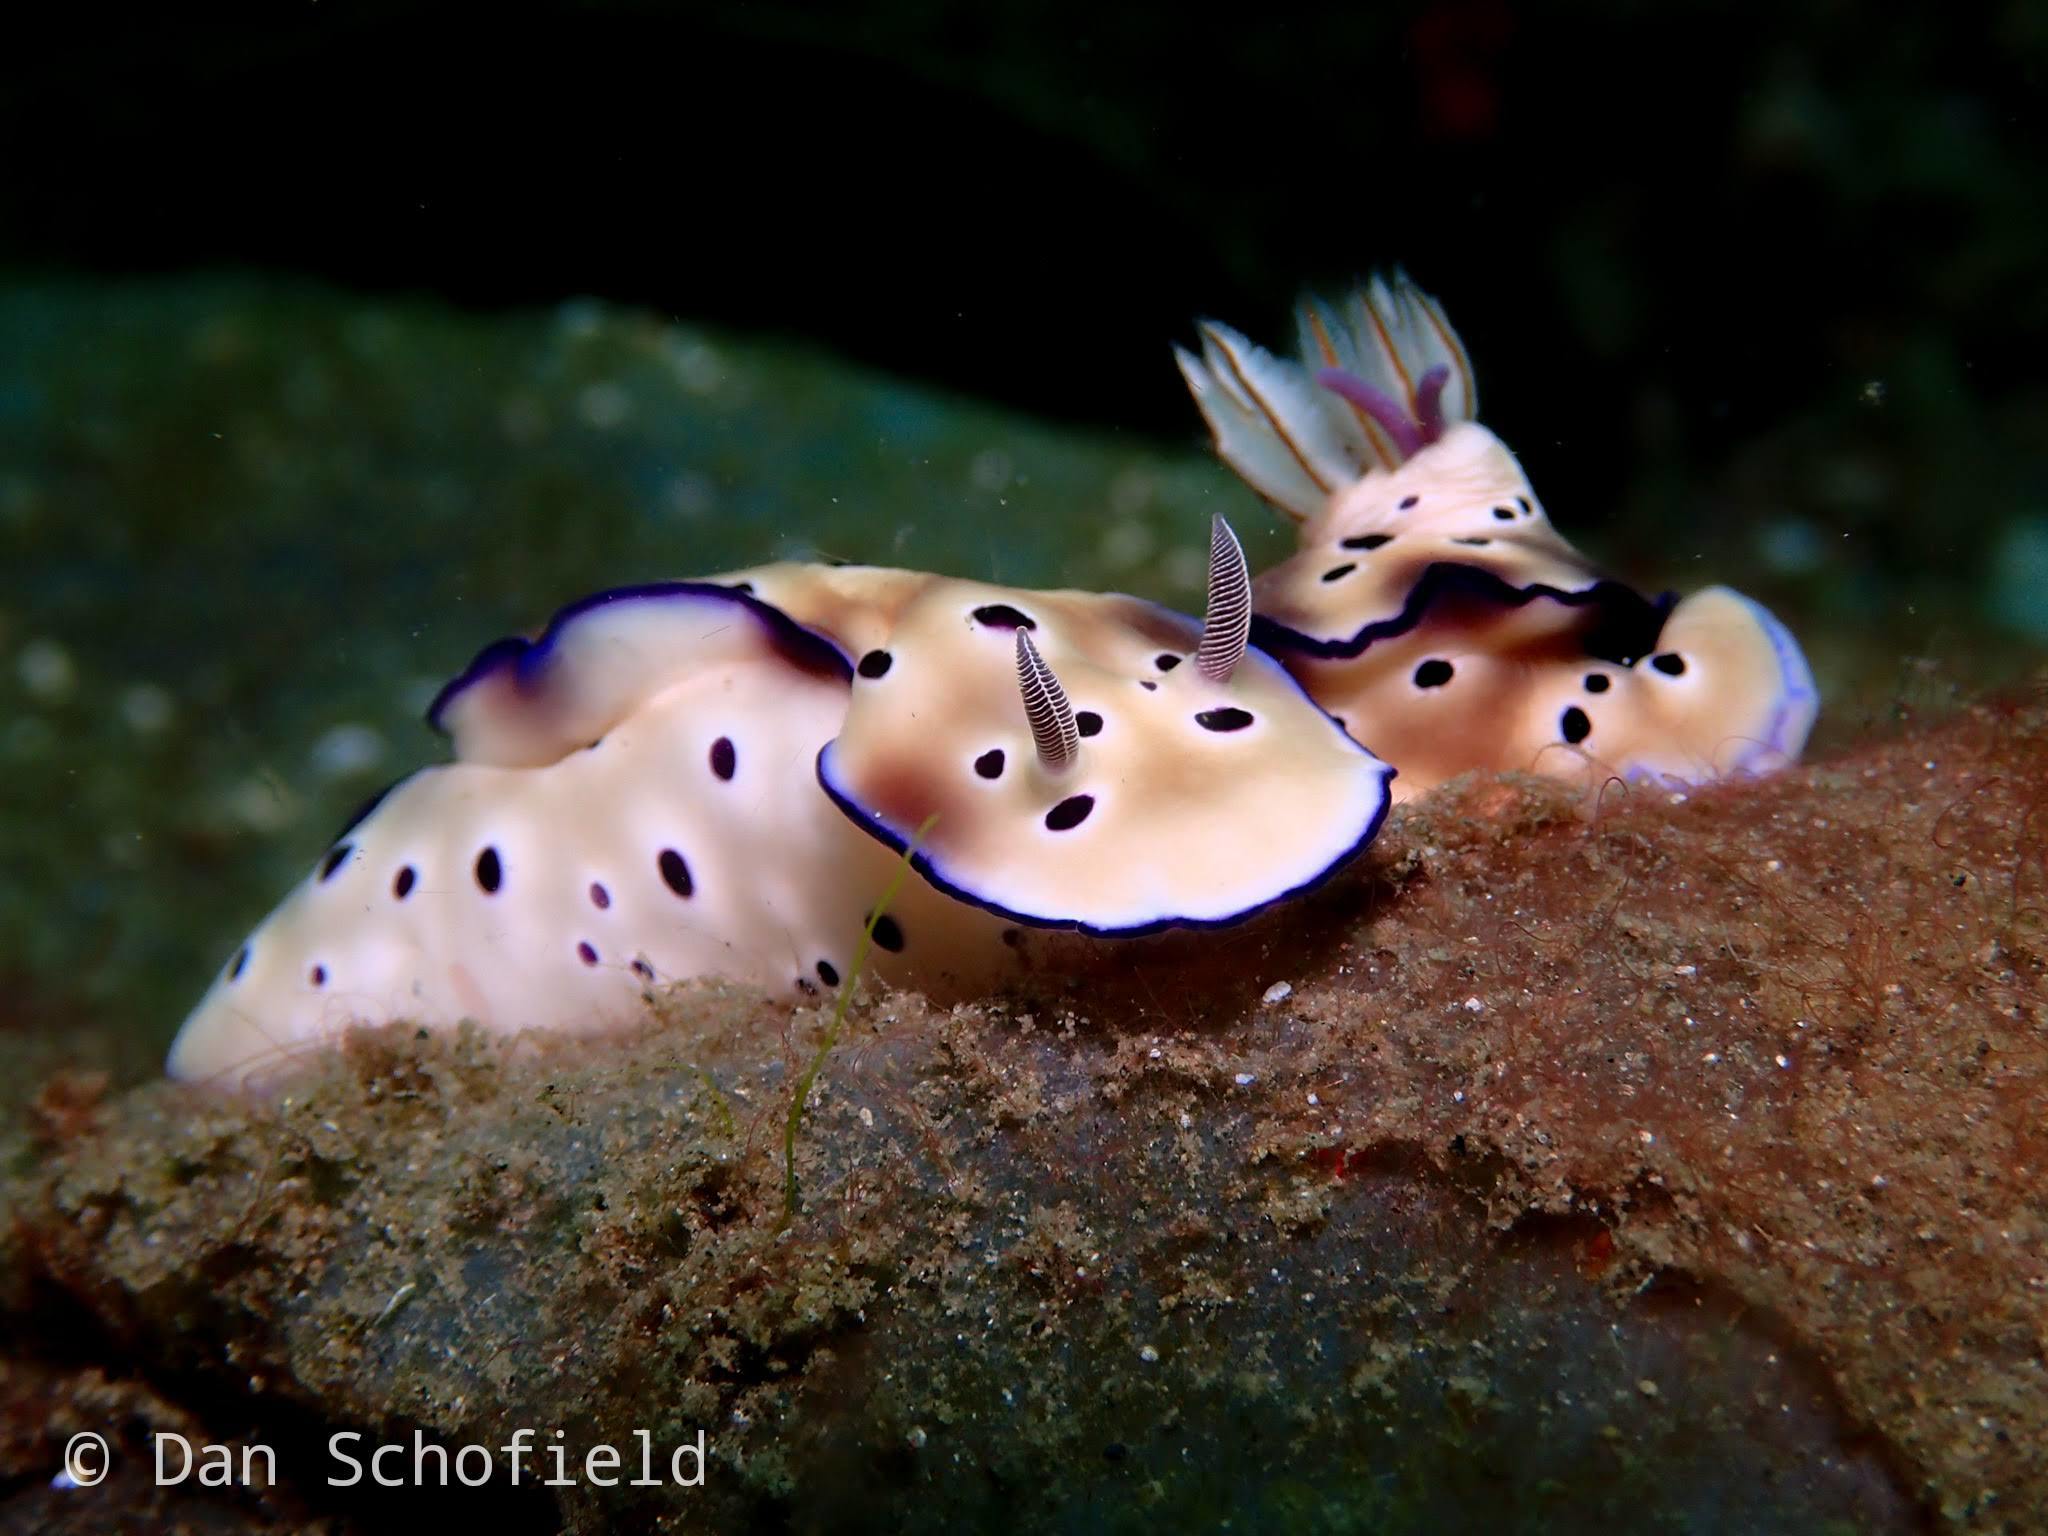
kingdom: Animalia
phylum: Mollusca
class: Gastropoda
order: Nudibranchia
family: Chromodorididae
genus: Hypselodoris
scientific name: Hypselodoris tryoni
